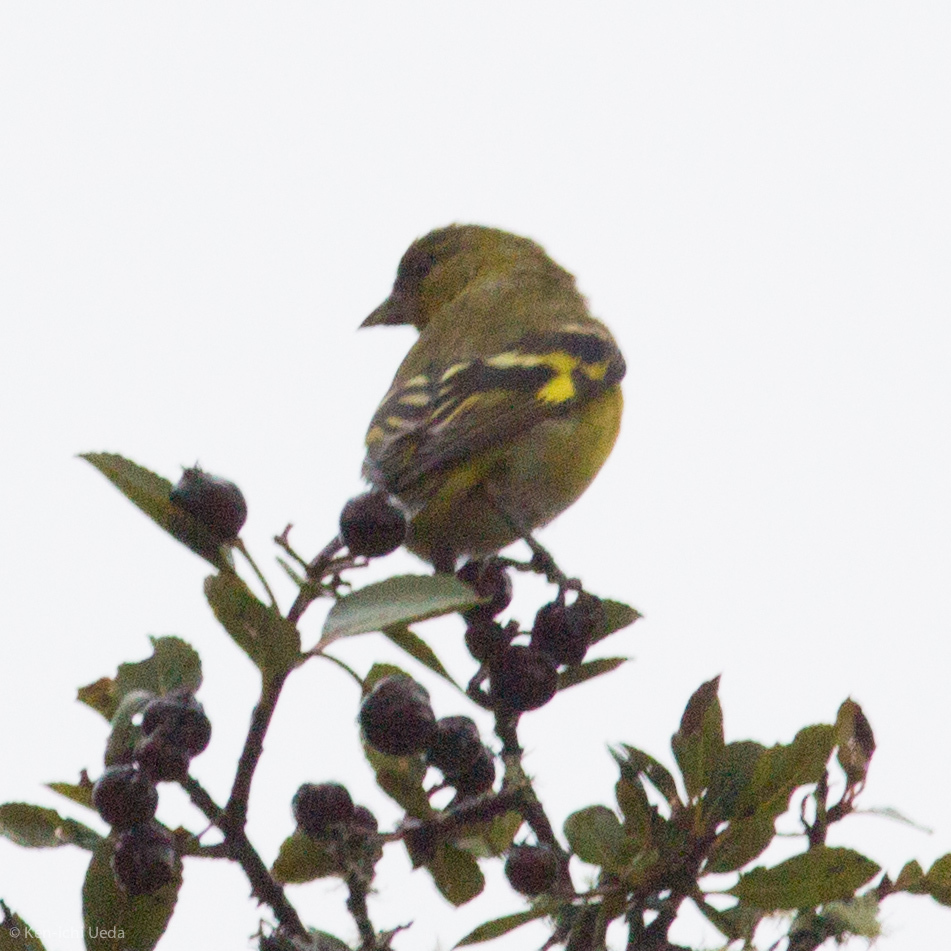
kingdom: Animalia
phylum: Chordata
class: Aves
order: Passeriformes
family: Fringillidae
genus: Spinus
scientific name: Spinus spinescens
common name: Andean siskin
